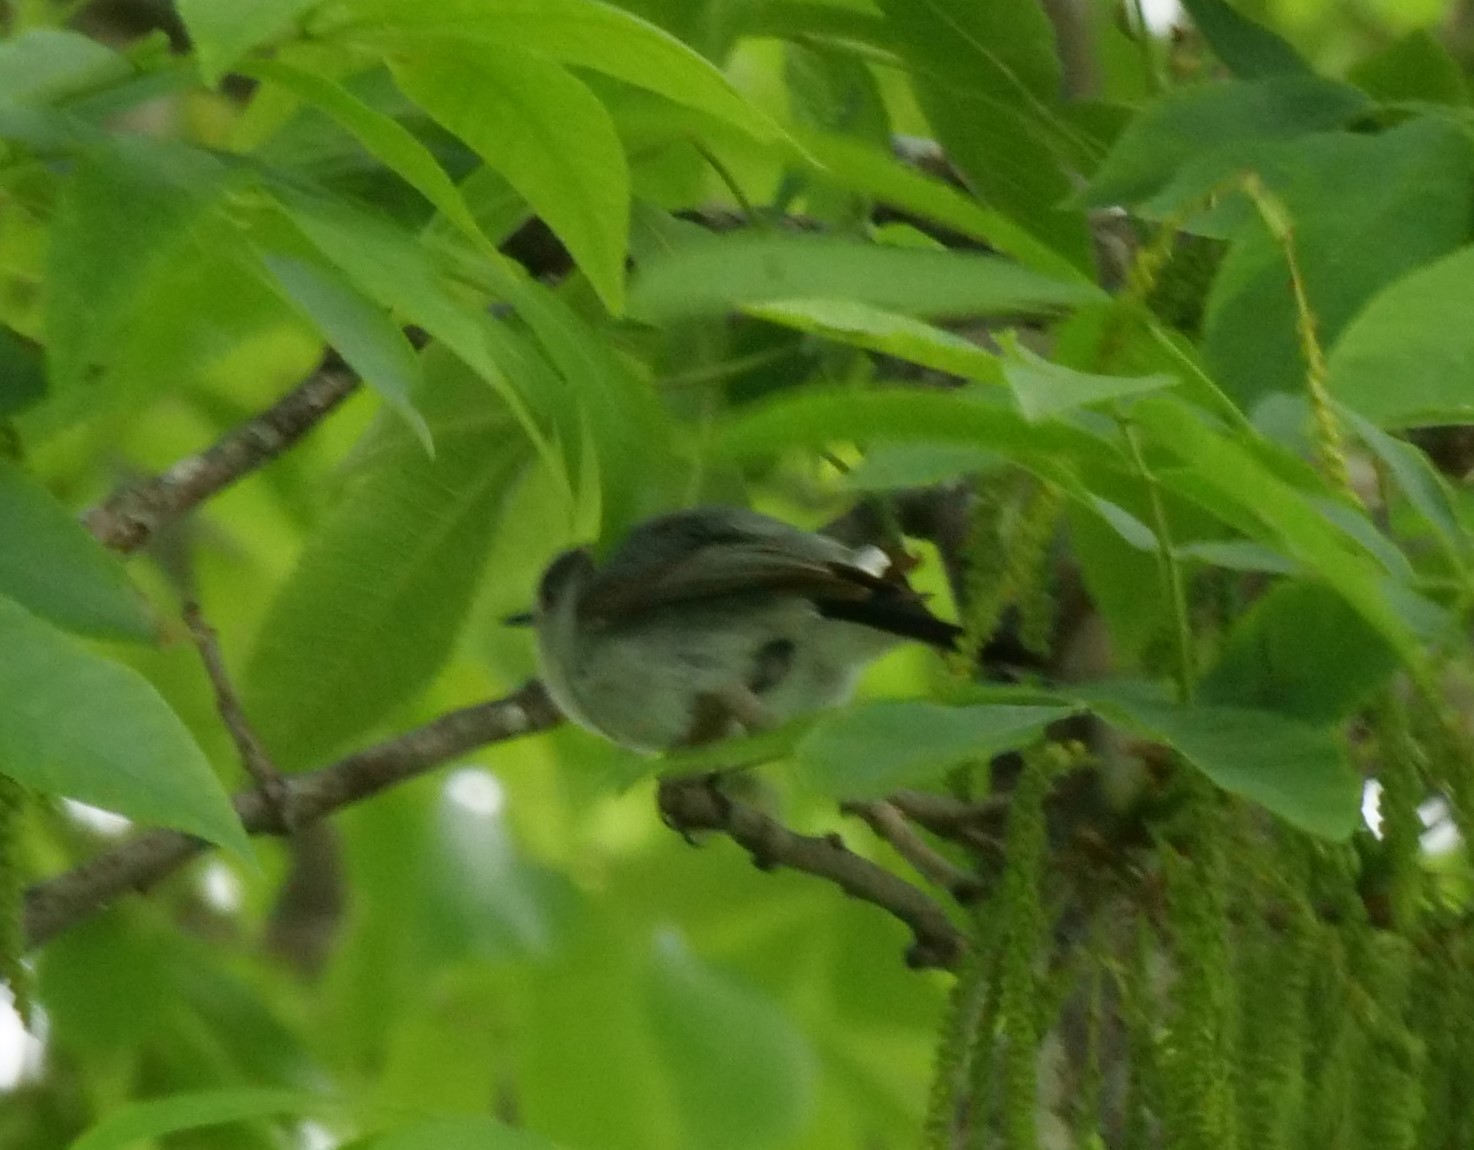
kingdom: Animalia
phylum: Chordata
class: Aves
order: Passeriformes
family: Polioptilidae
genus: Polioptila
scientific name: Polioptila caerulea
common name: Blue-gray gnatcatcher
